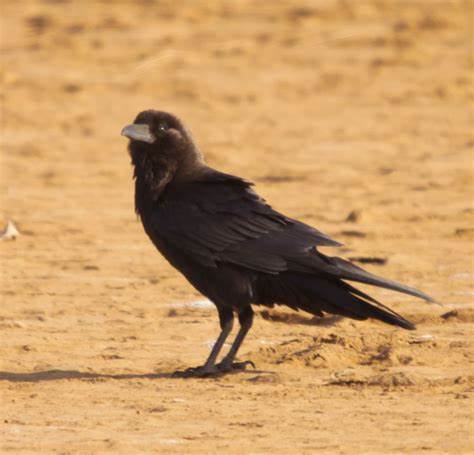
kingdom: Animalia
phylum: Chordata
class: Aves
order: Passeriformes
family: Corvidae
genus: Corvus
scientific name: Corvus ruficollis
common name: Brown-necked raven
